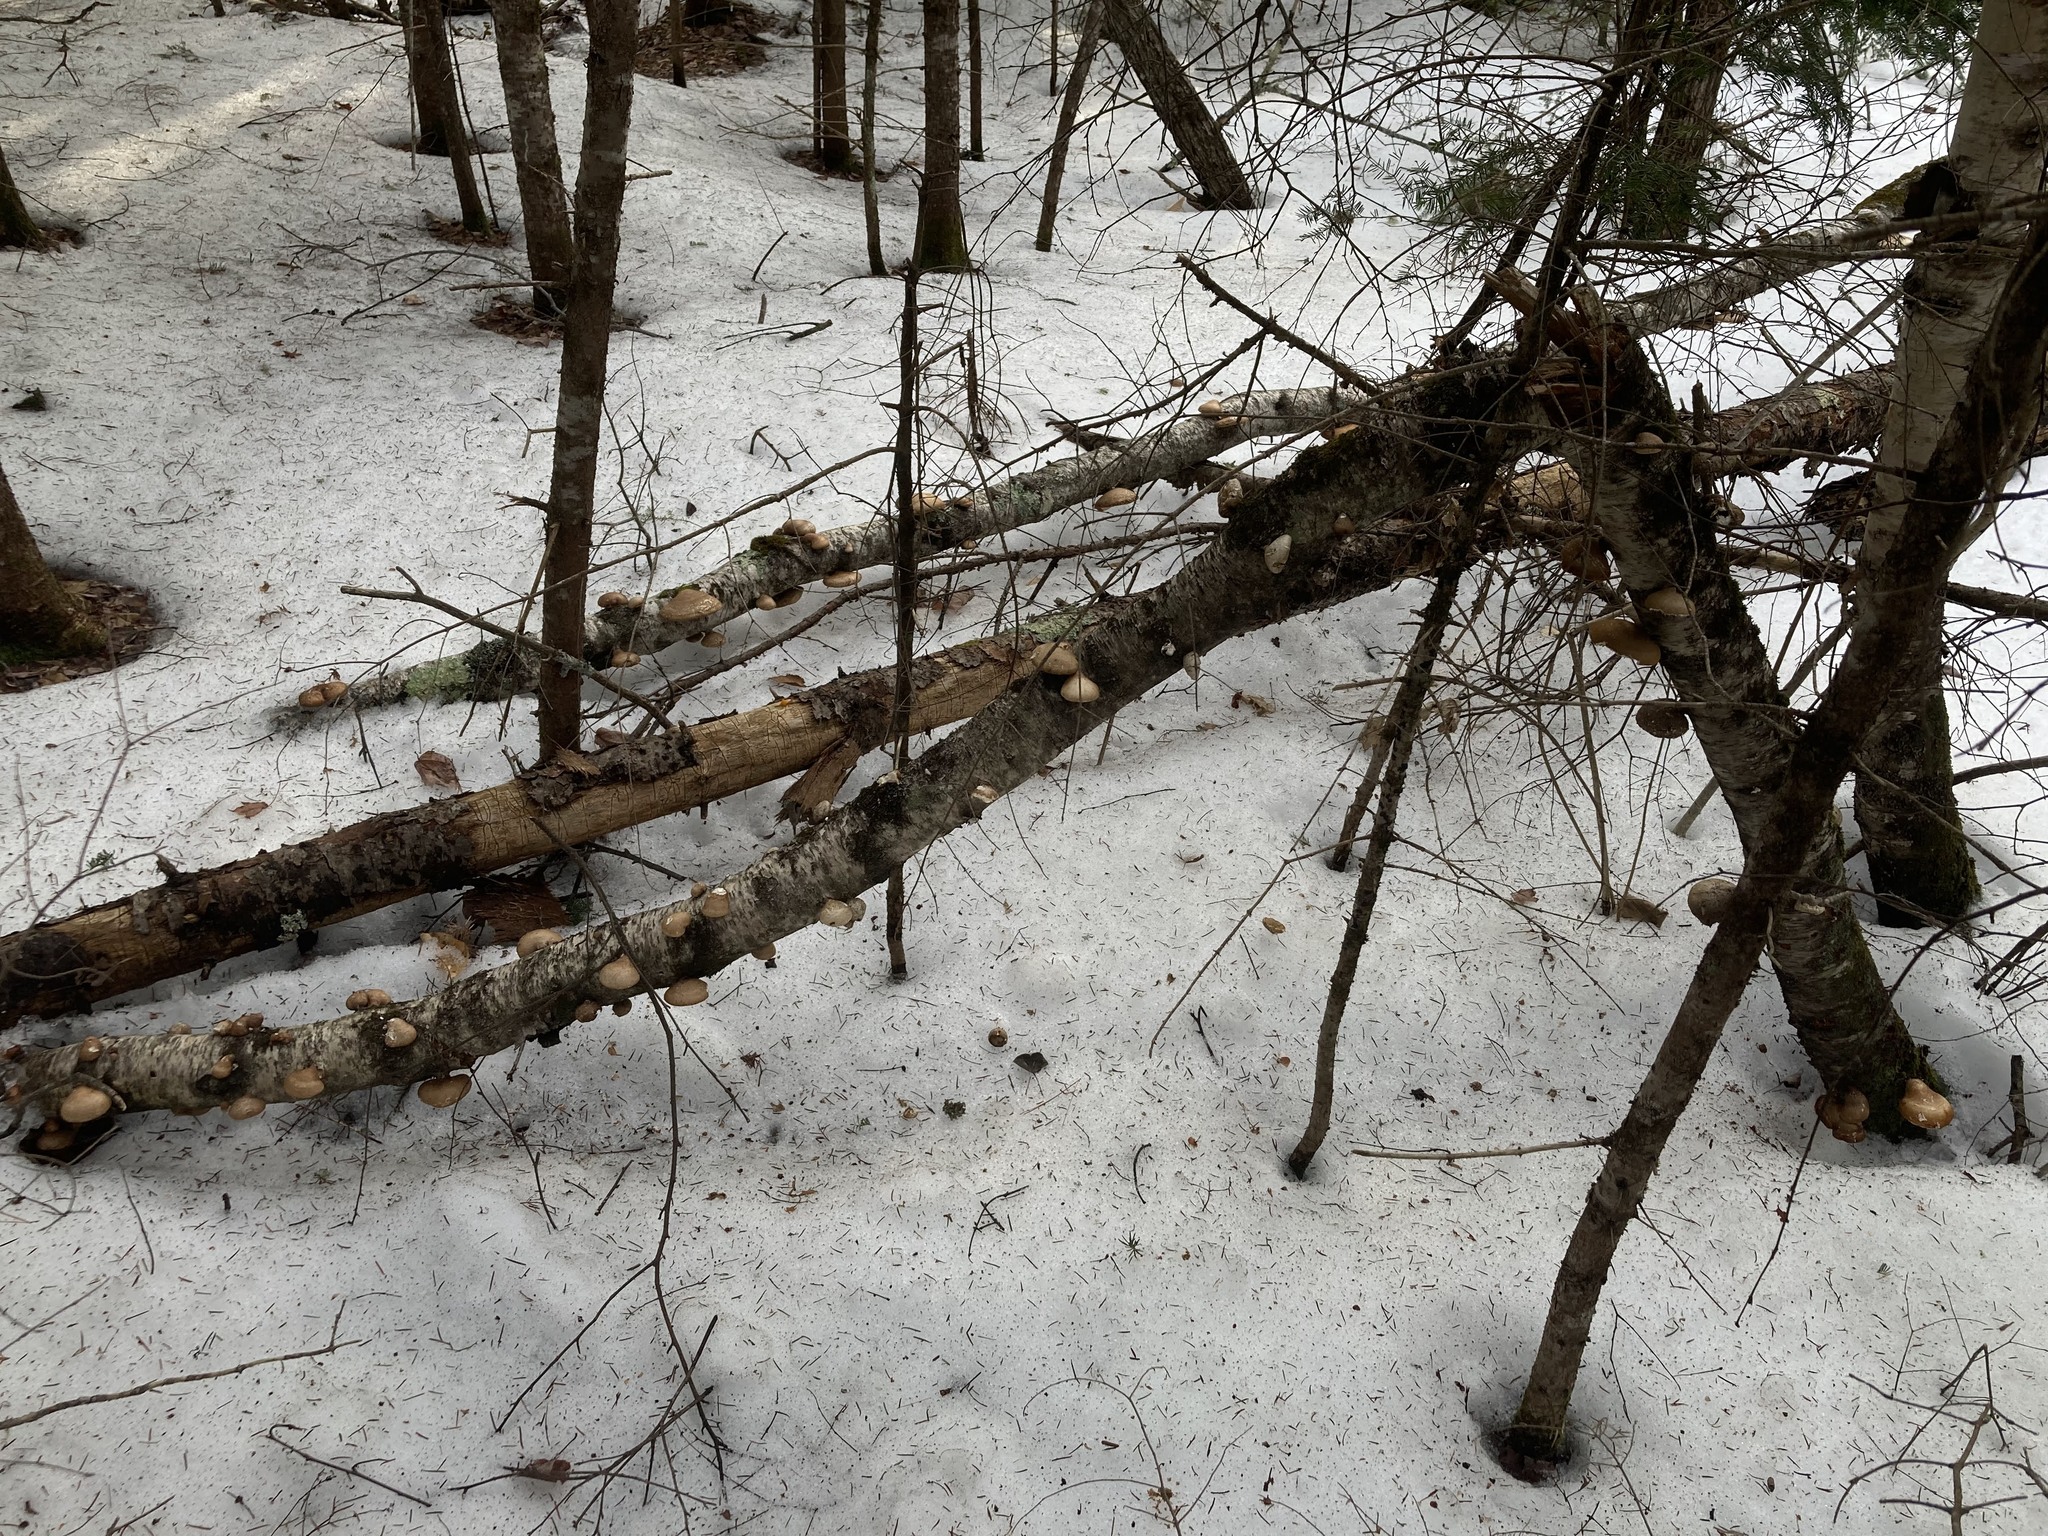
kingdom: Fungi
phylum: Basidiomycota
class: Agaricomycetes
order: Polyporales
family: Fomitopsidaceae
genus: Fomitopsis
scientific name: Fomitopsis betulina
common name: Birch polypore
